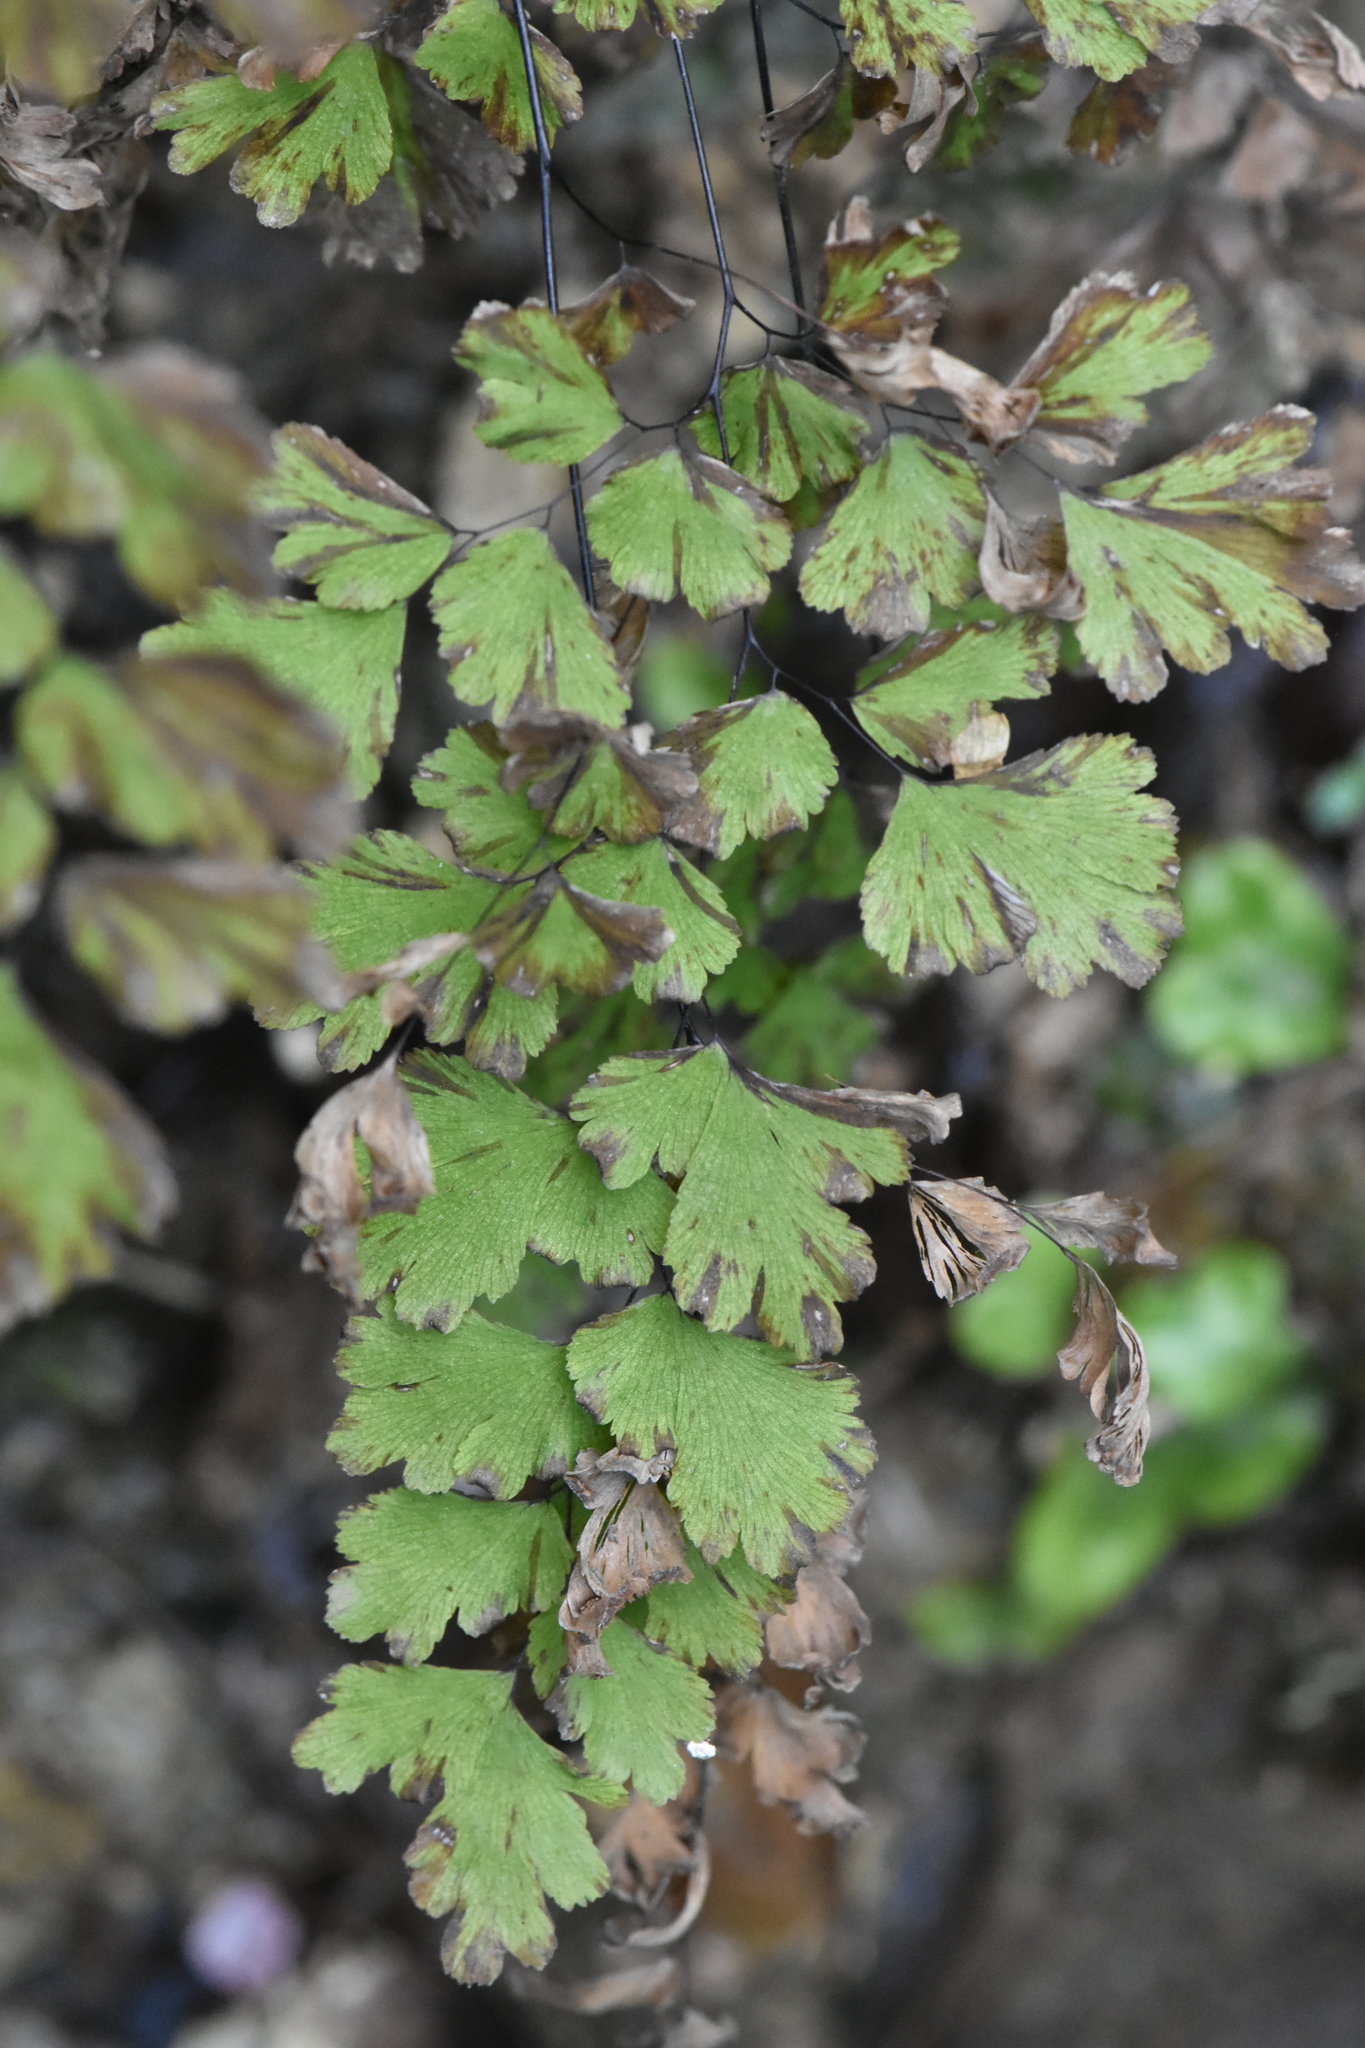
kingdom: Plantae
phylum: Tracheophyta
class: Polypodiopsida
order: Polypodiales
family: Pteridaceae
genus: Adiantum
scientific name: Adiantum capillus-veneris
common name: Maidenhair fern
